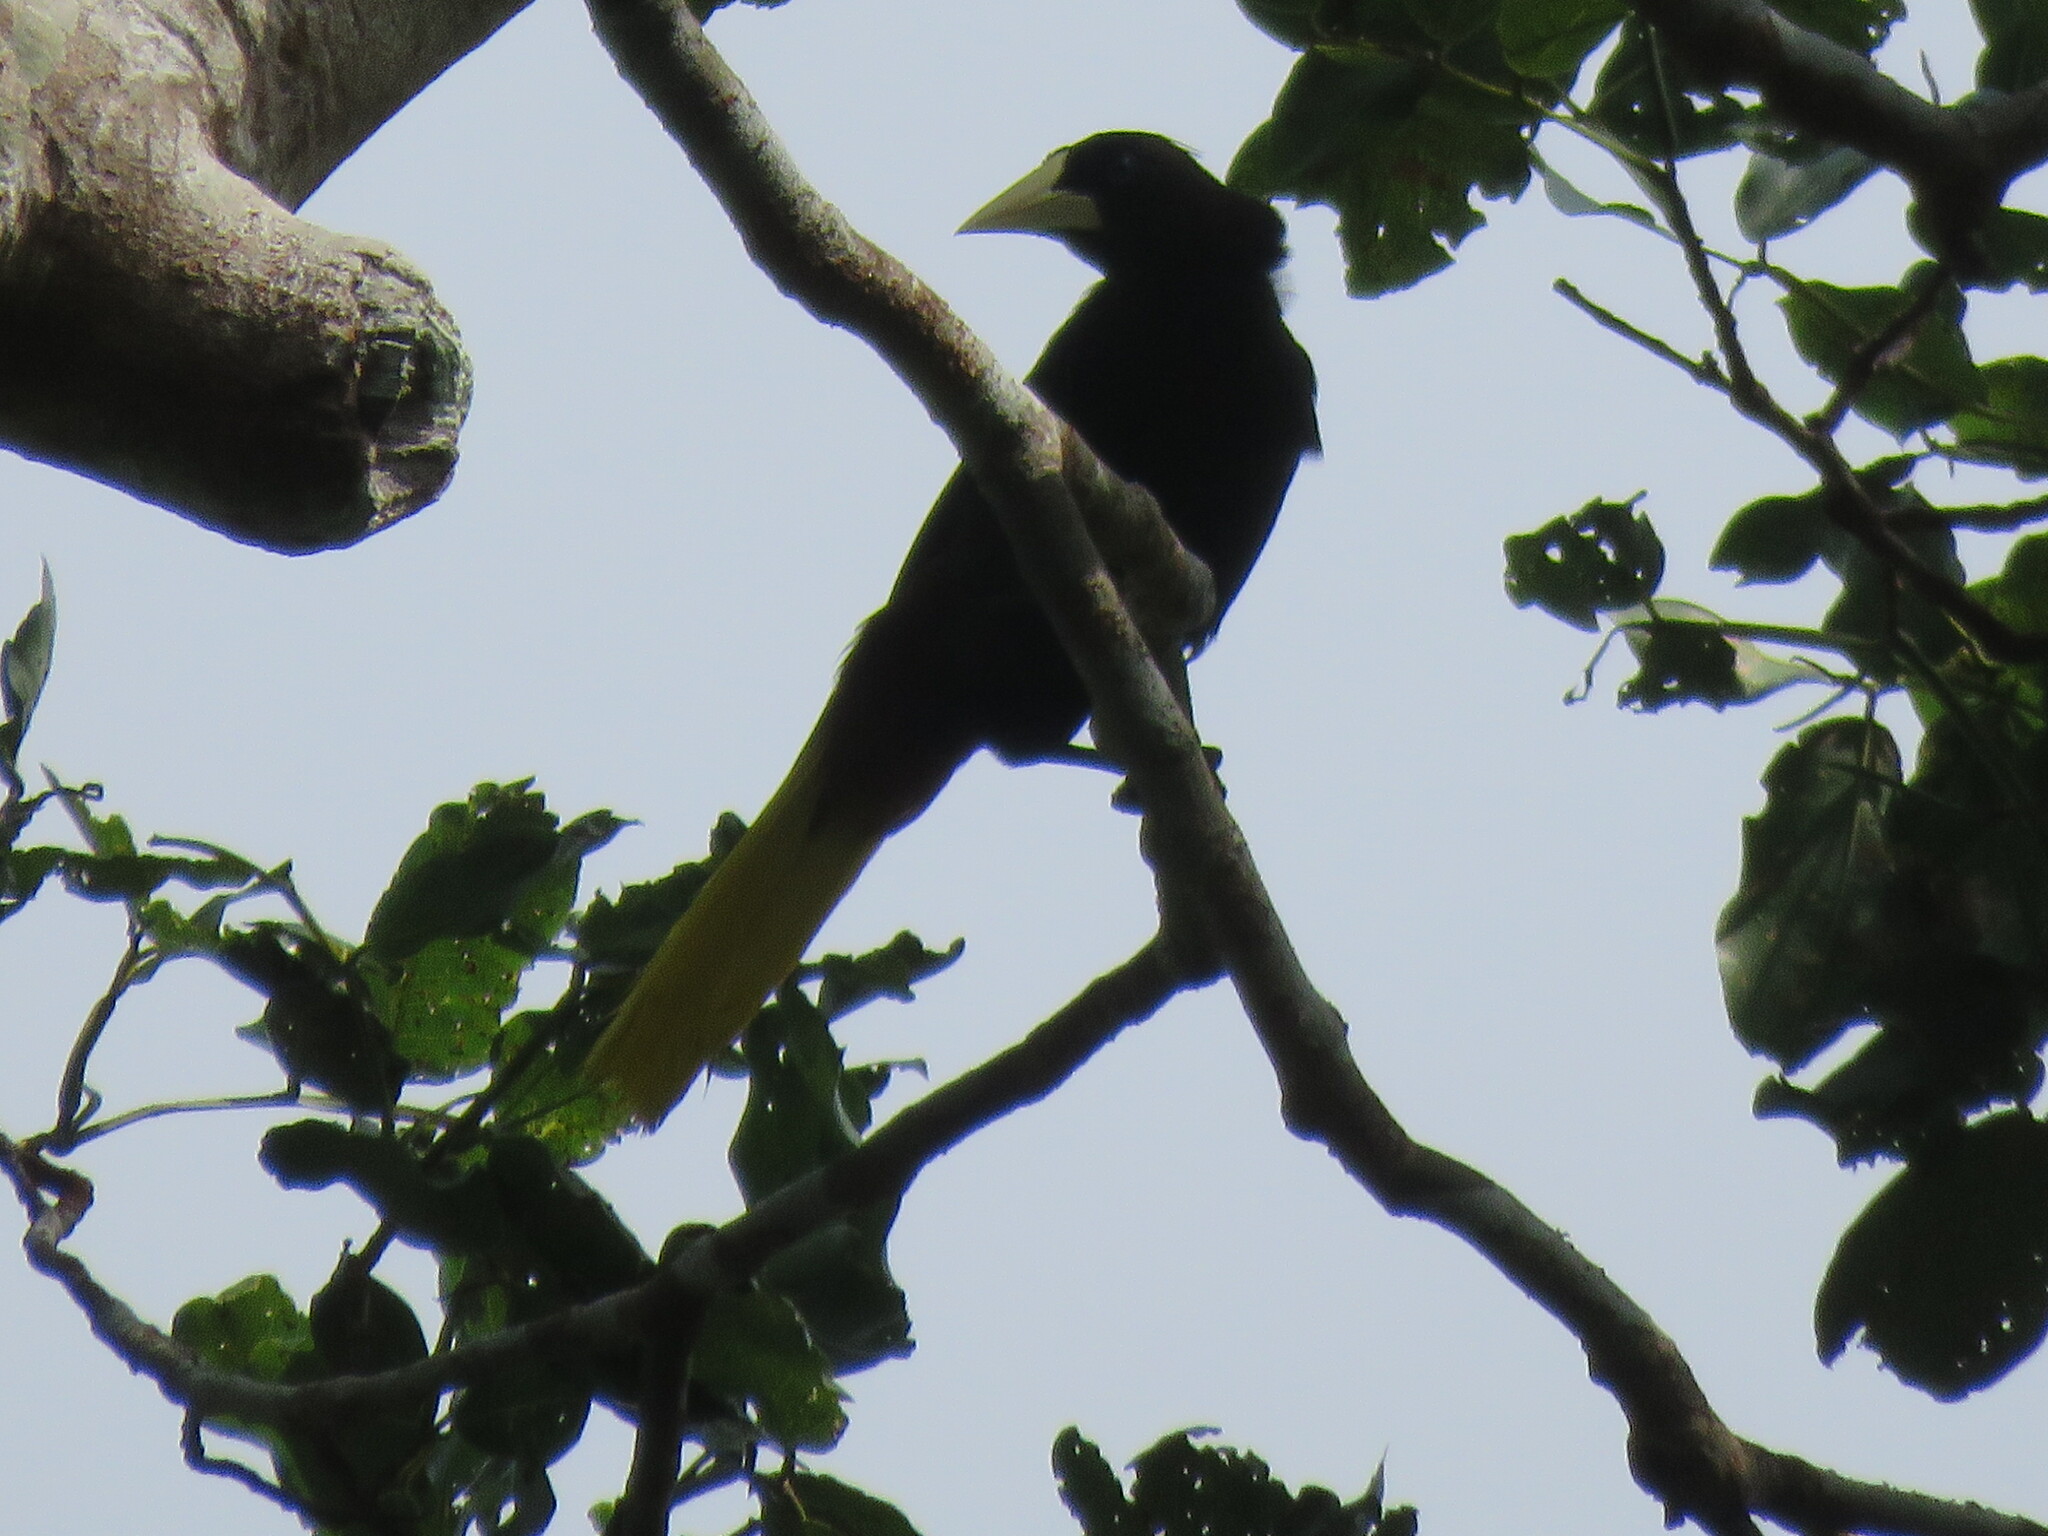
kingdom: Animalia
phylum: Chordata
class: Aves
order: Passeriformes
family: Icteridae
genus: Psarocolius
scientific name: Psarocolius decumanus
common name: Crested oropendola
